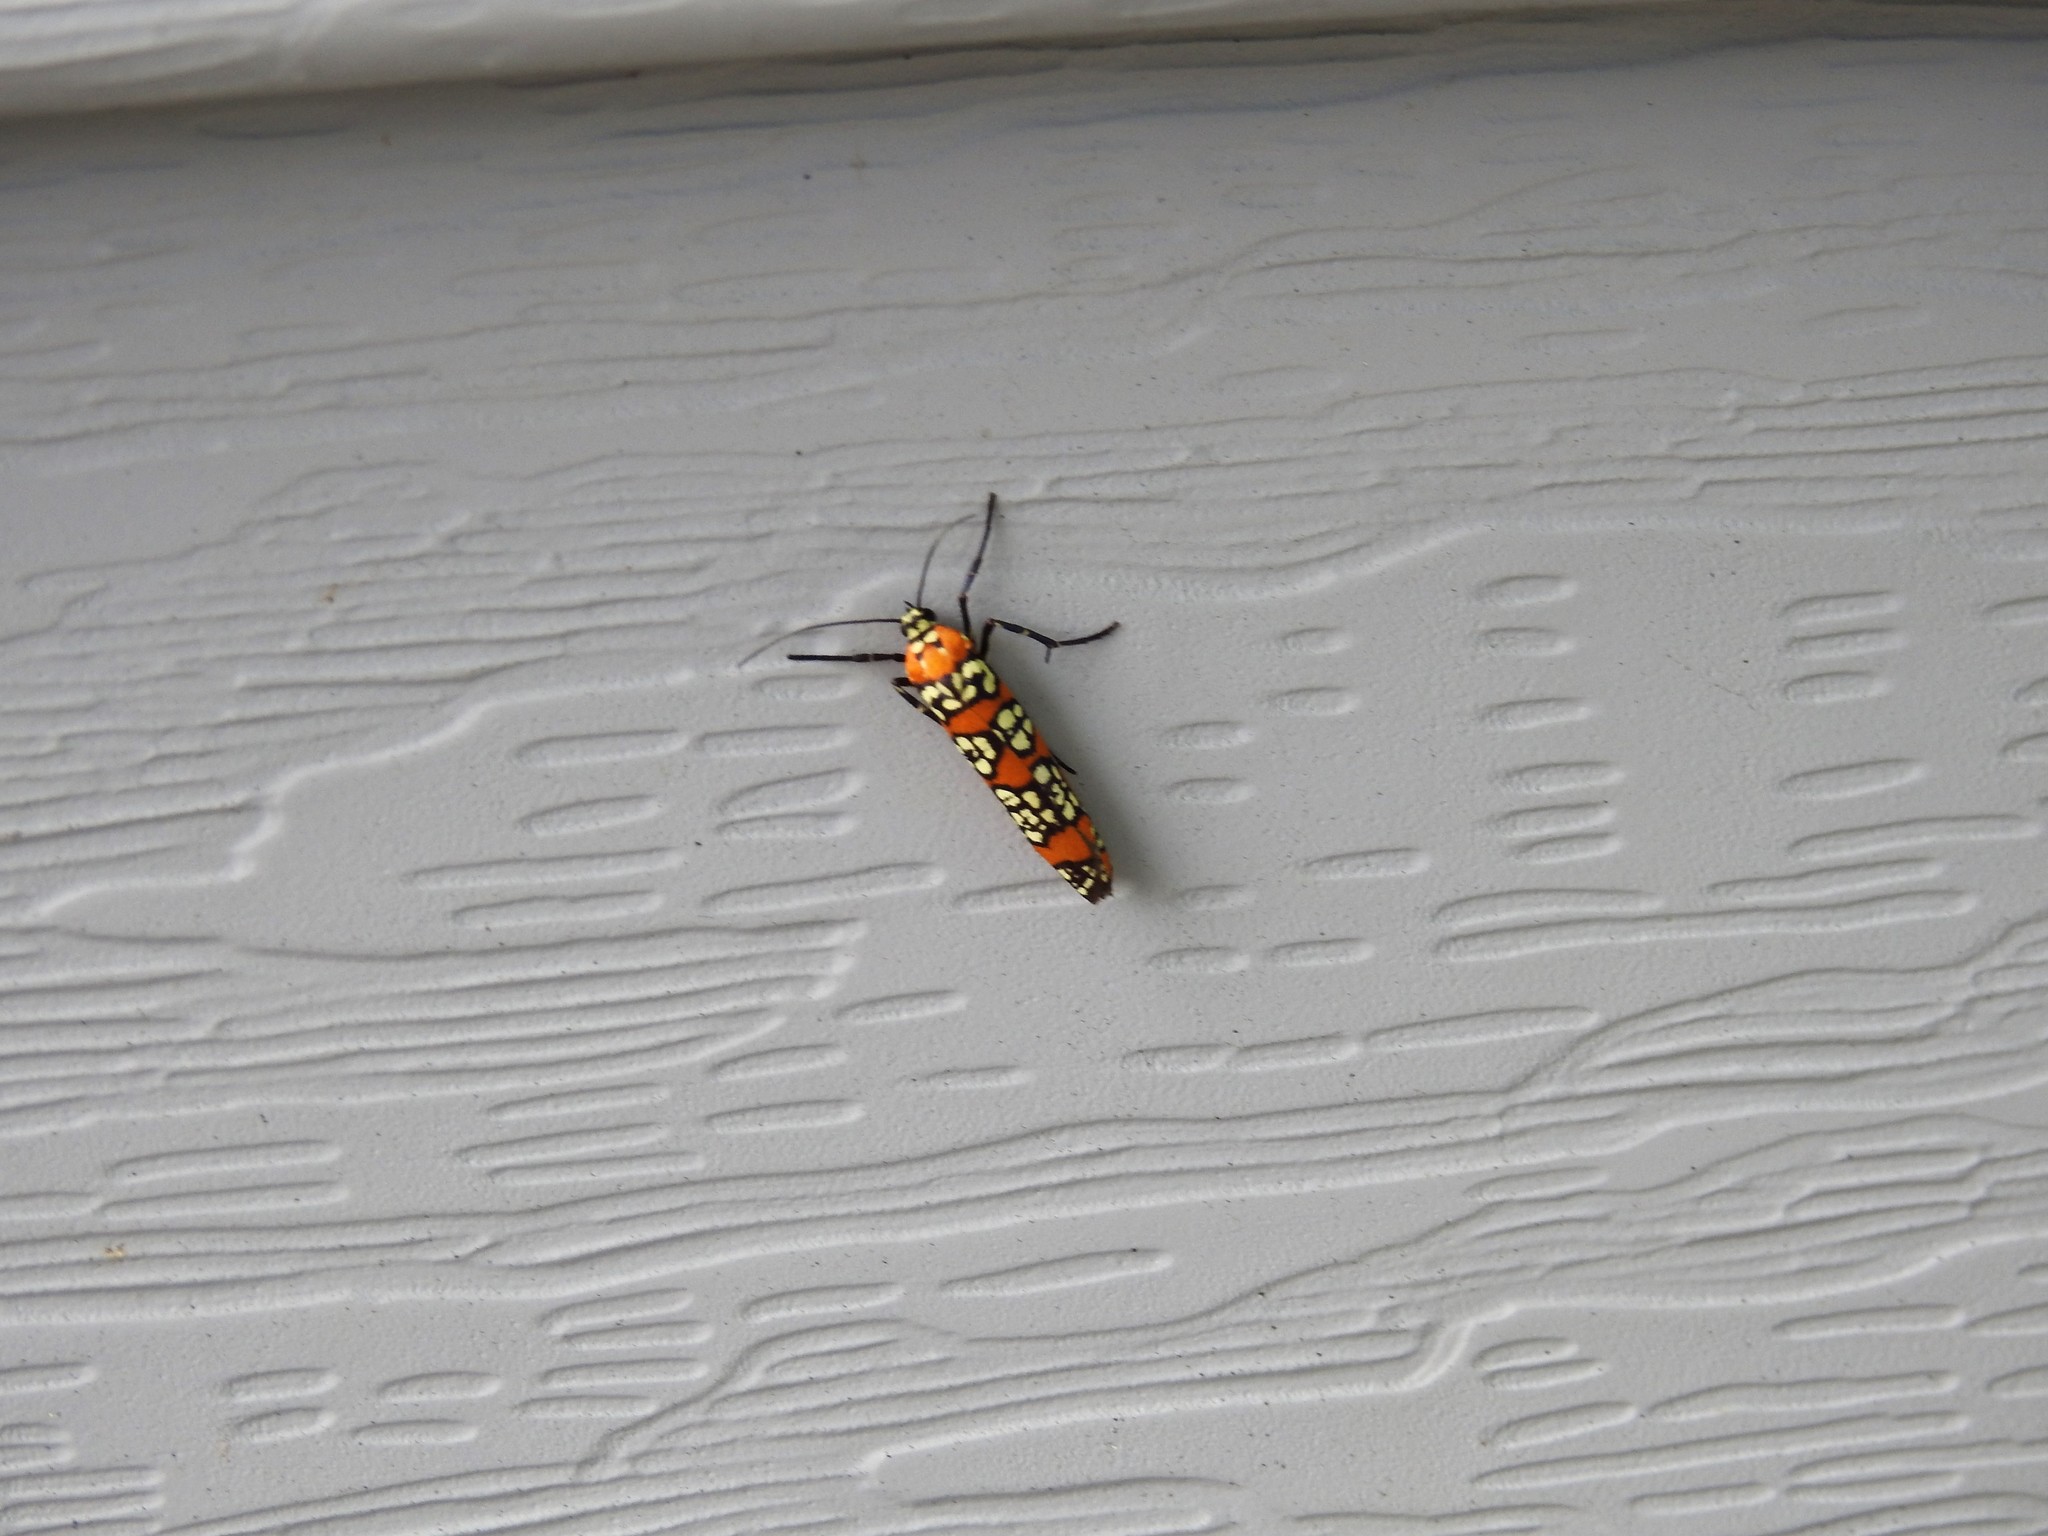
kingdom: Animalia
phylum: Arthropoda
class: Insecta
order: Lepidoptera
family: Attevidae
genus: Atteva
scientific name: Atteva punctella
